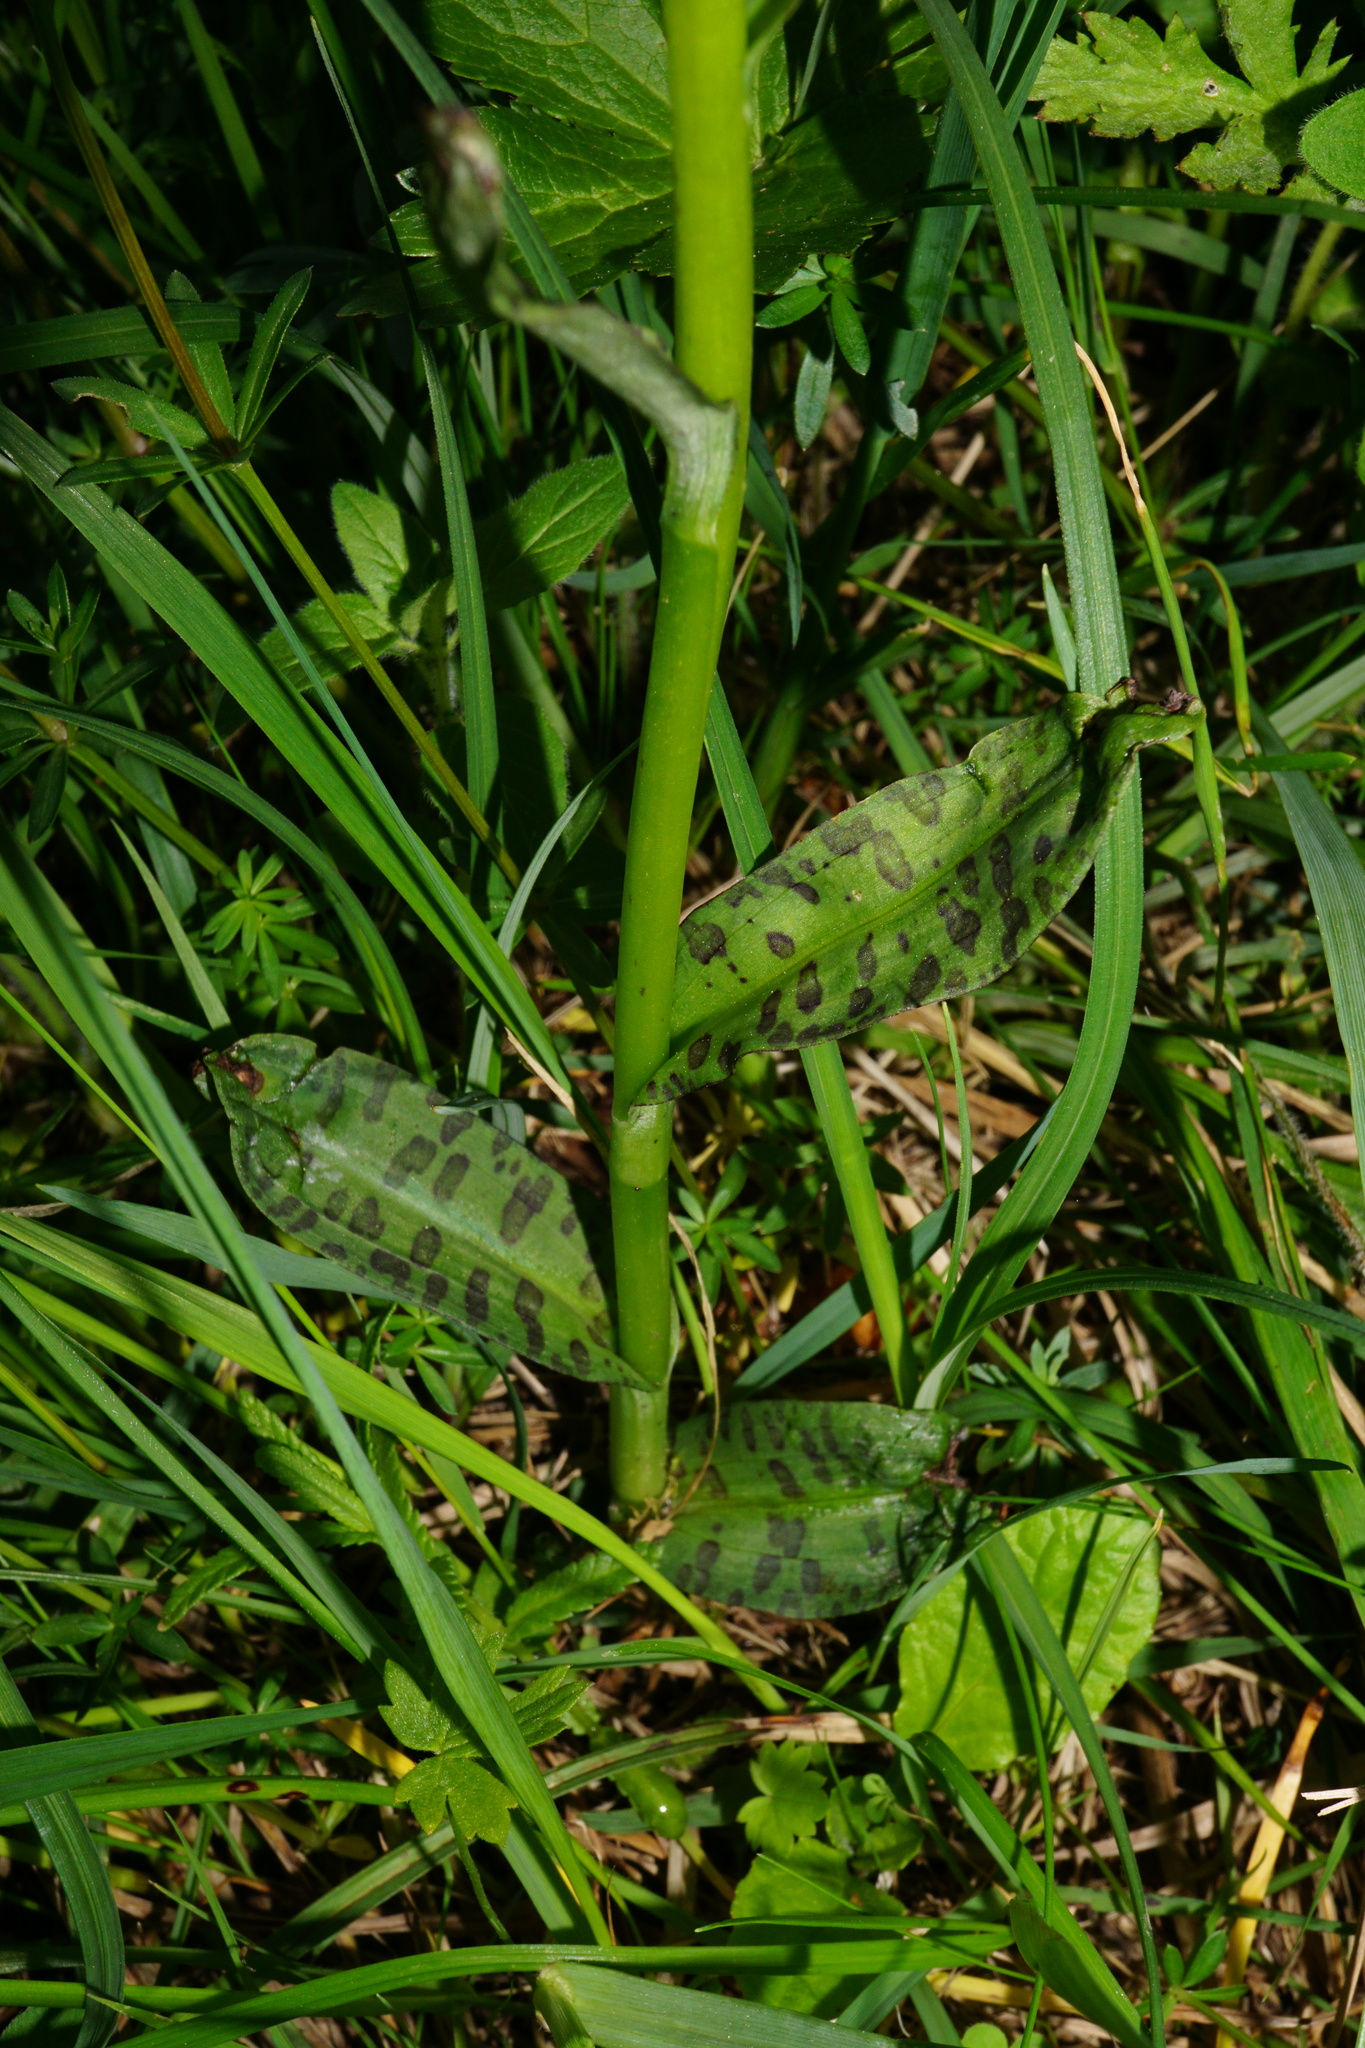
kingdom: Plantae
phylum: Tracheophyta
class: Liliopsida
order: Asparagales
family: Orchidaceae
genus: Dactylorhiza
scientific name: Dactylorhiza maculata
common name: Heath spotted-orchid
